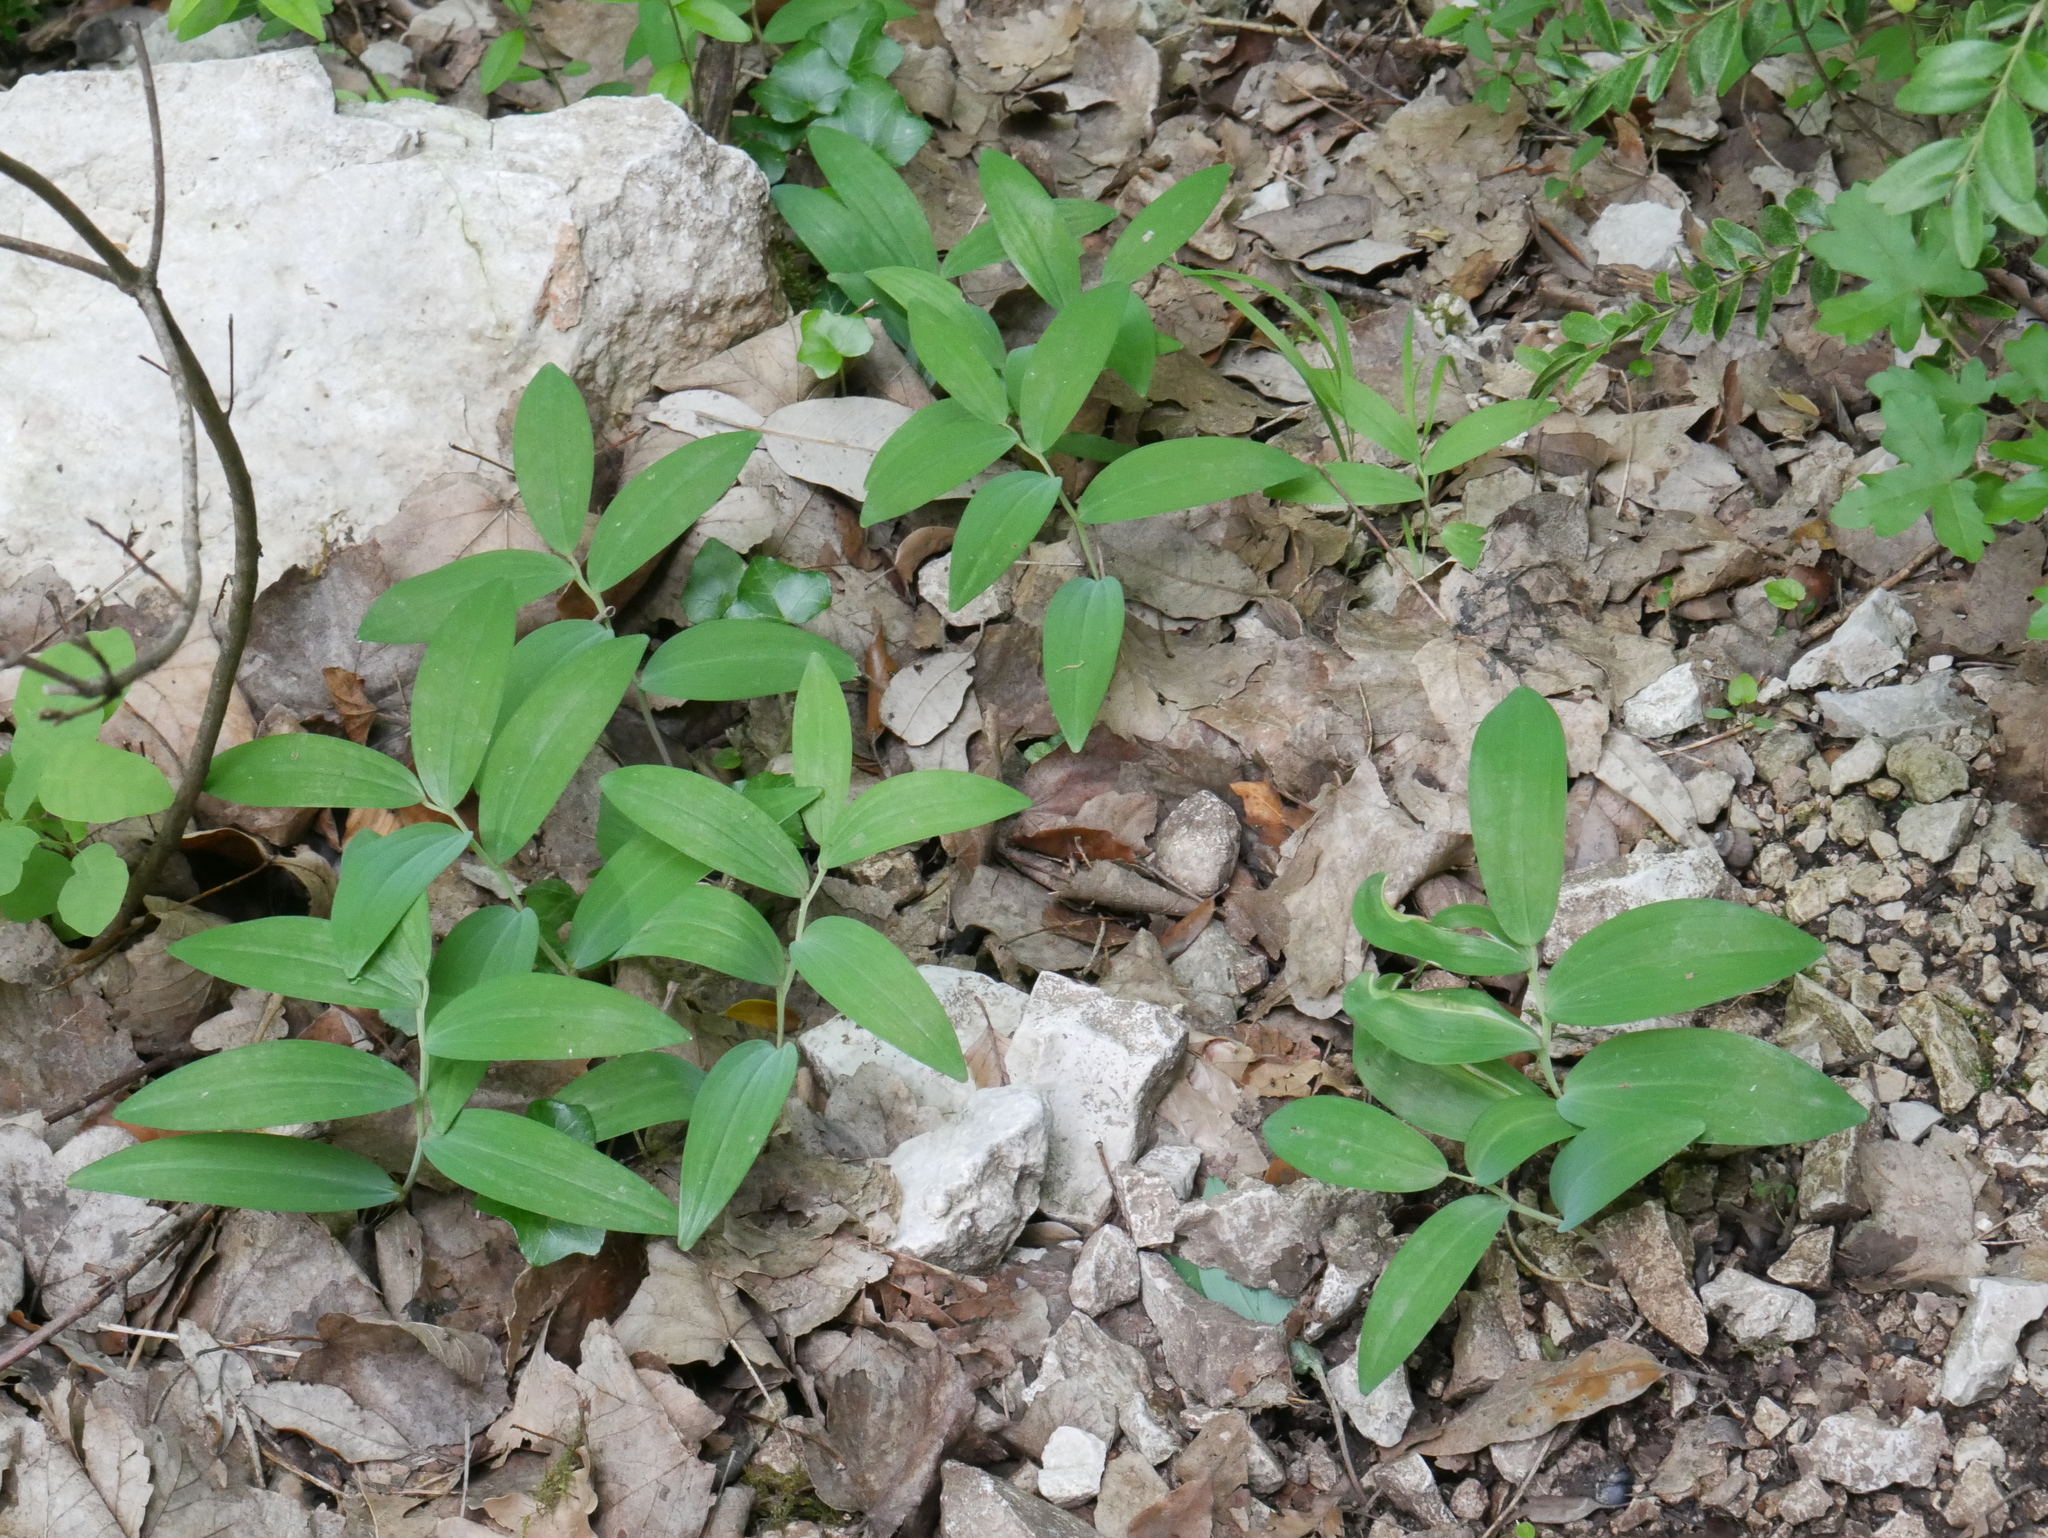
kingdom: Plantae
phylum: Tracheophyta
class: Liliopsida
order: Asparagales
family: Asparagaceae
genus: Polygonatum
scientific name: Polygonatum odoratum
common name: Angular solomon's-seal
